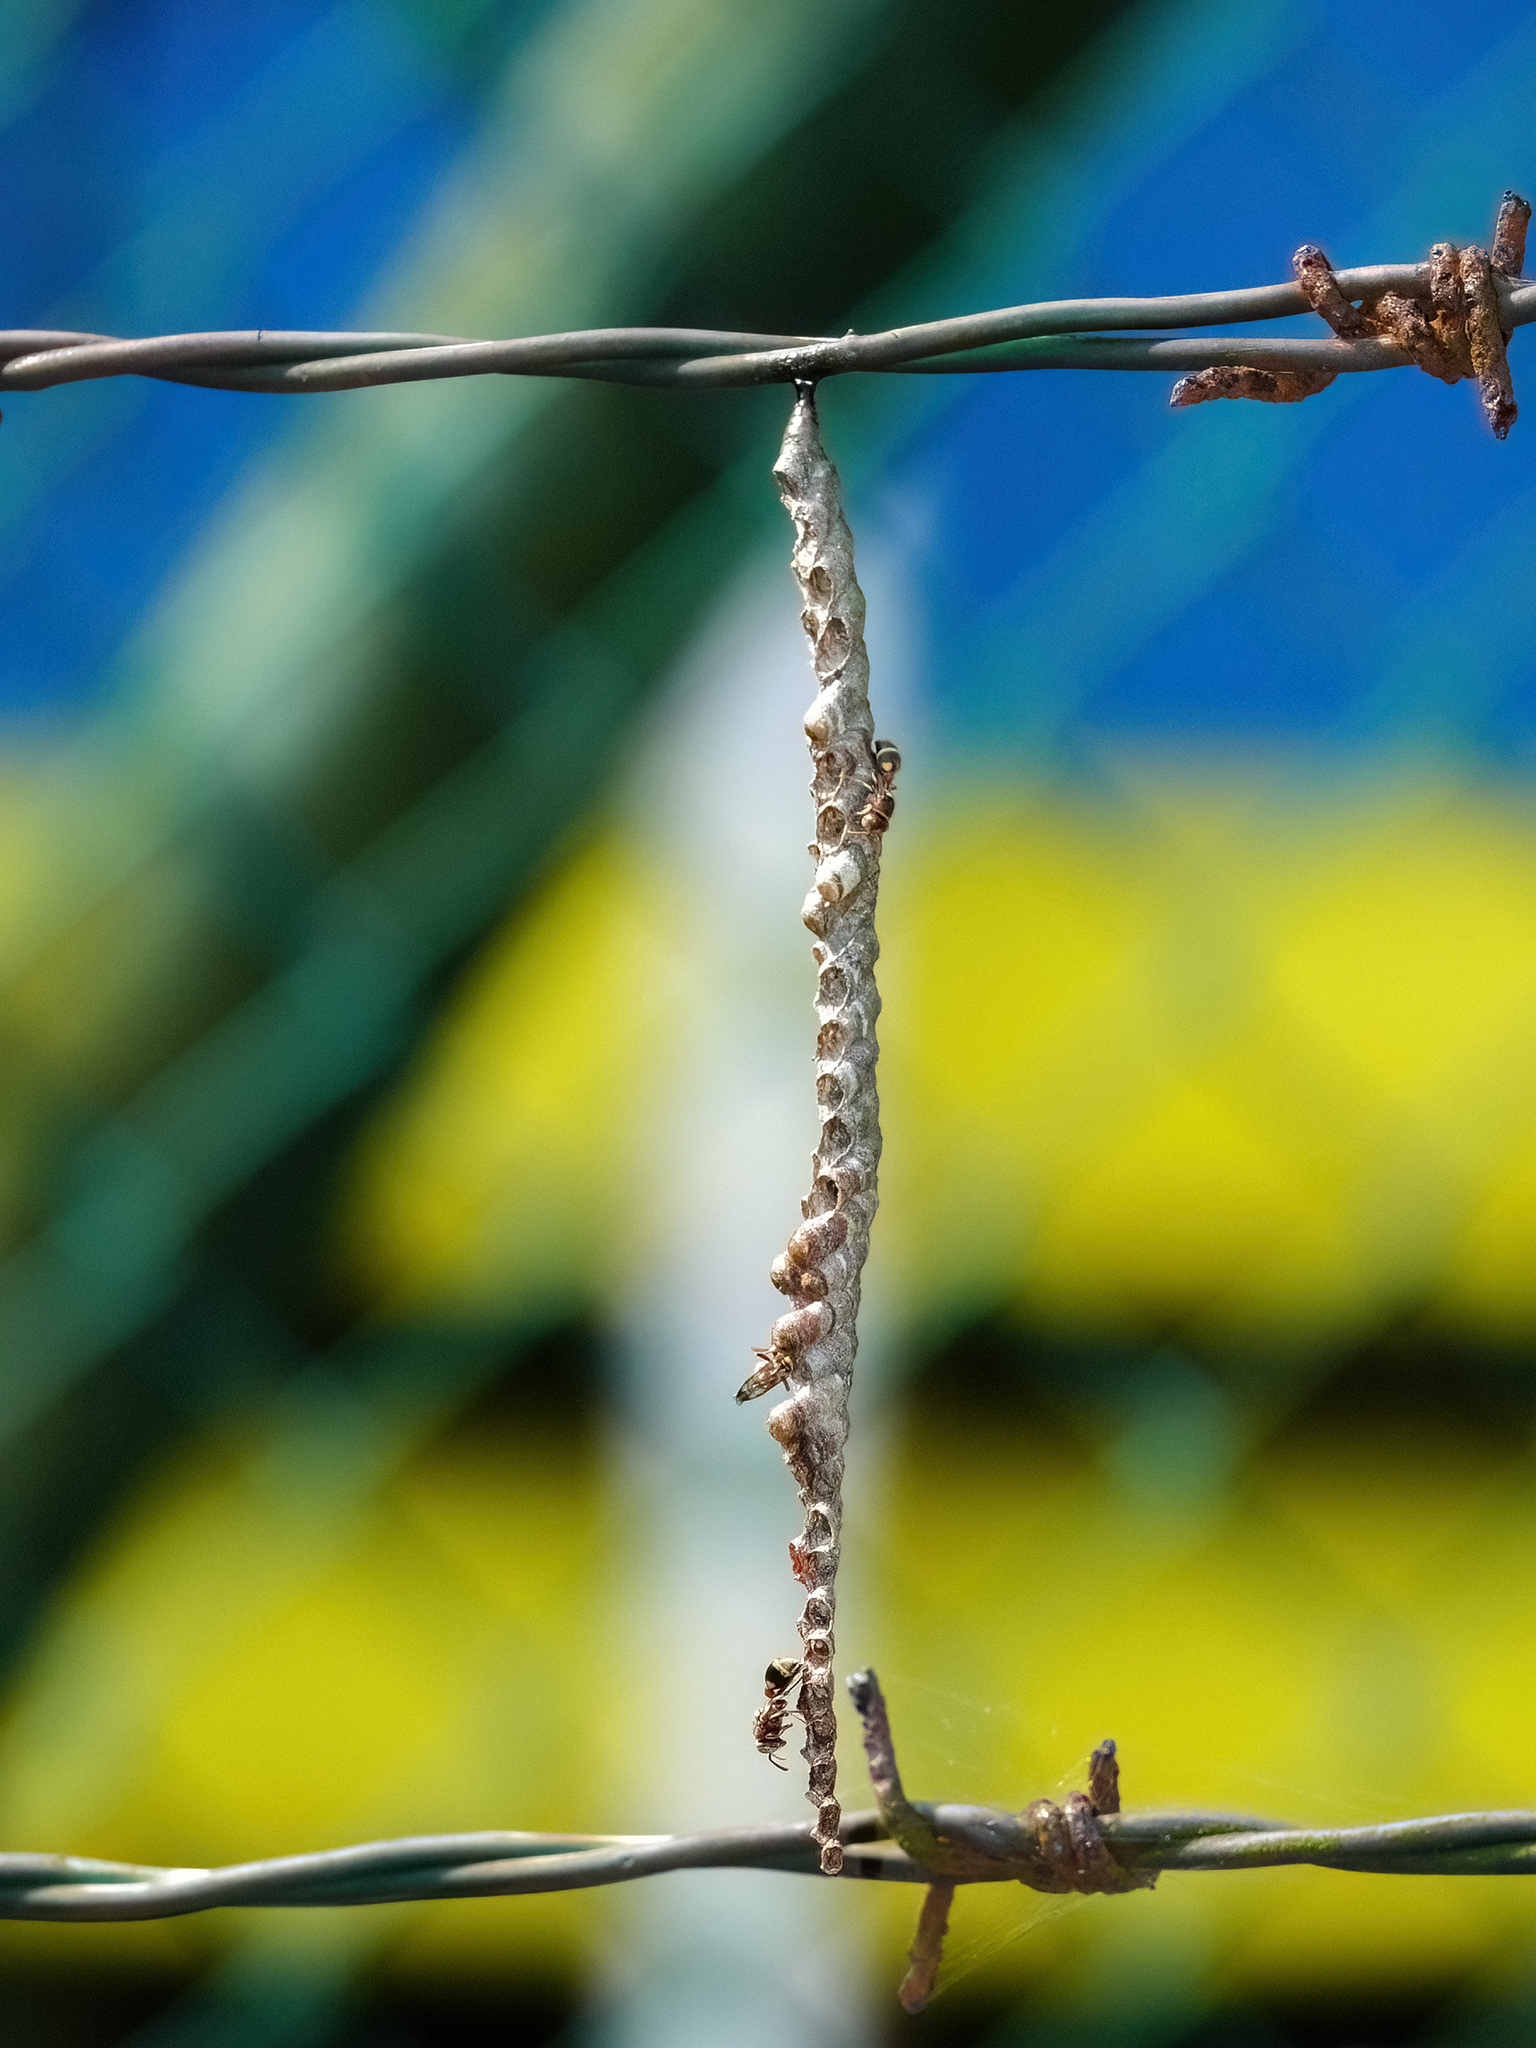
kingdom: Animalia
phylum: Arthropoda
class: Insecta
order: Hymenoptera
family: Vespidae
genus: Ropalidia
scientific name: Ropalidia jacobsoni
